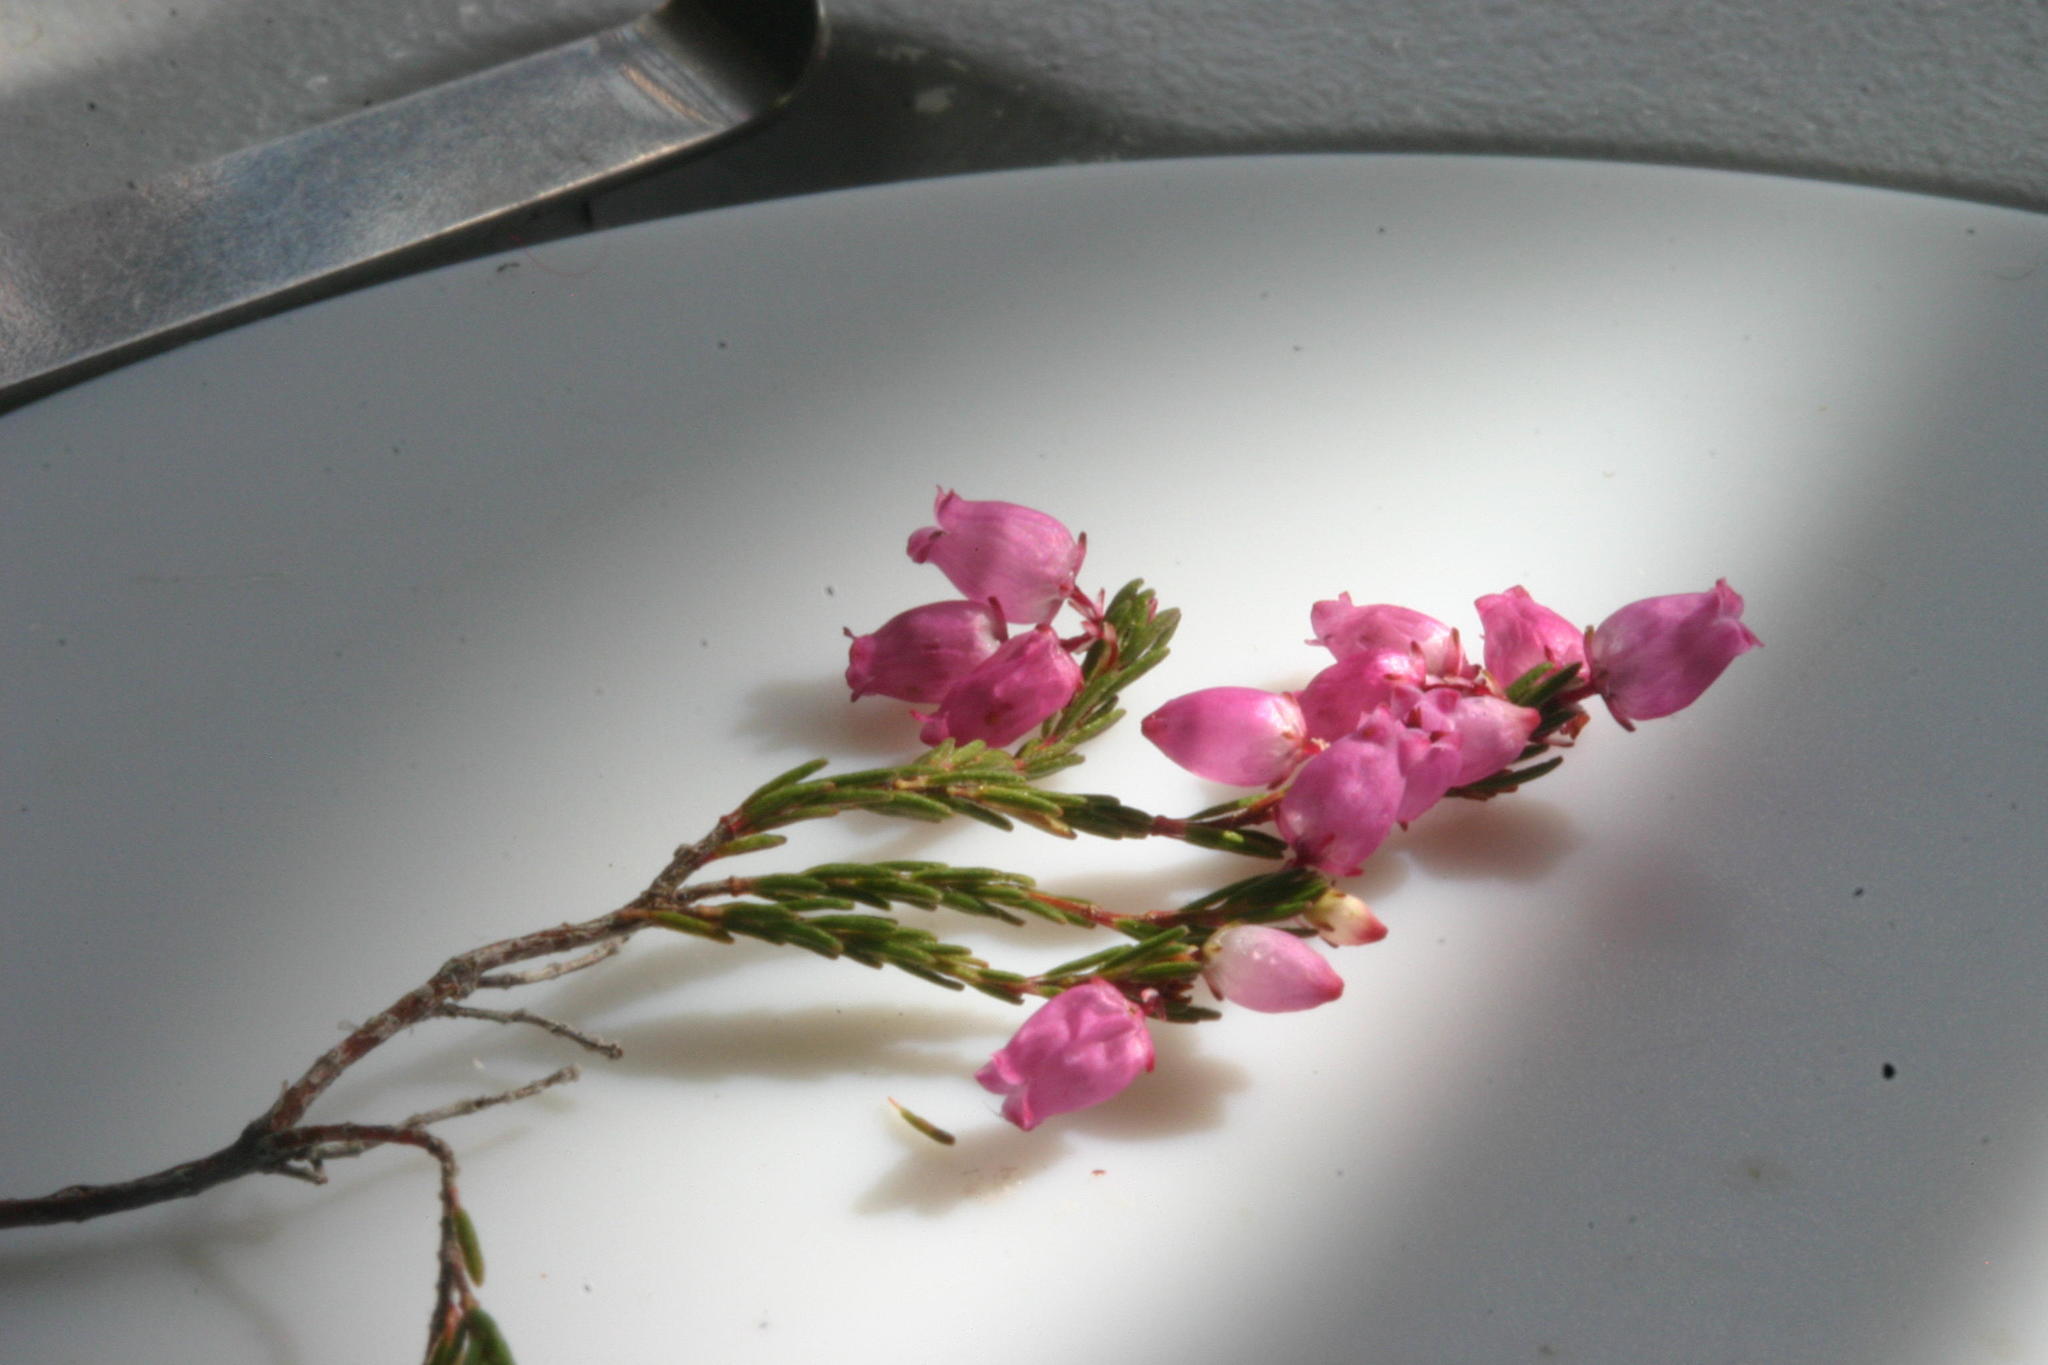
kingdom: Plantae
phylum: Tracheophyta
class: Magnoliopsida
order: Ericales
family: Ericaceae
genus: Erica
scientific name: Erica gracilis
